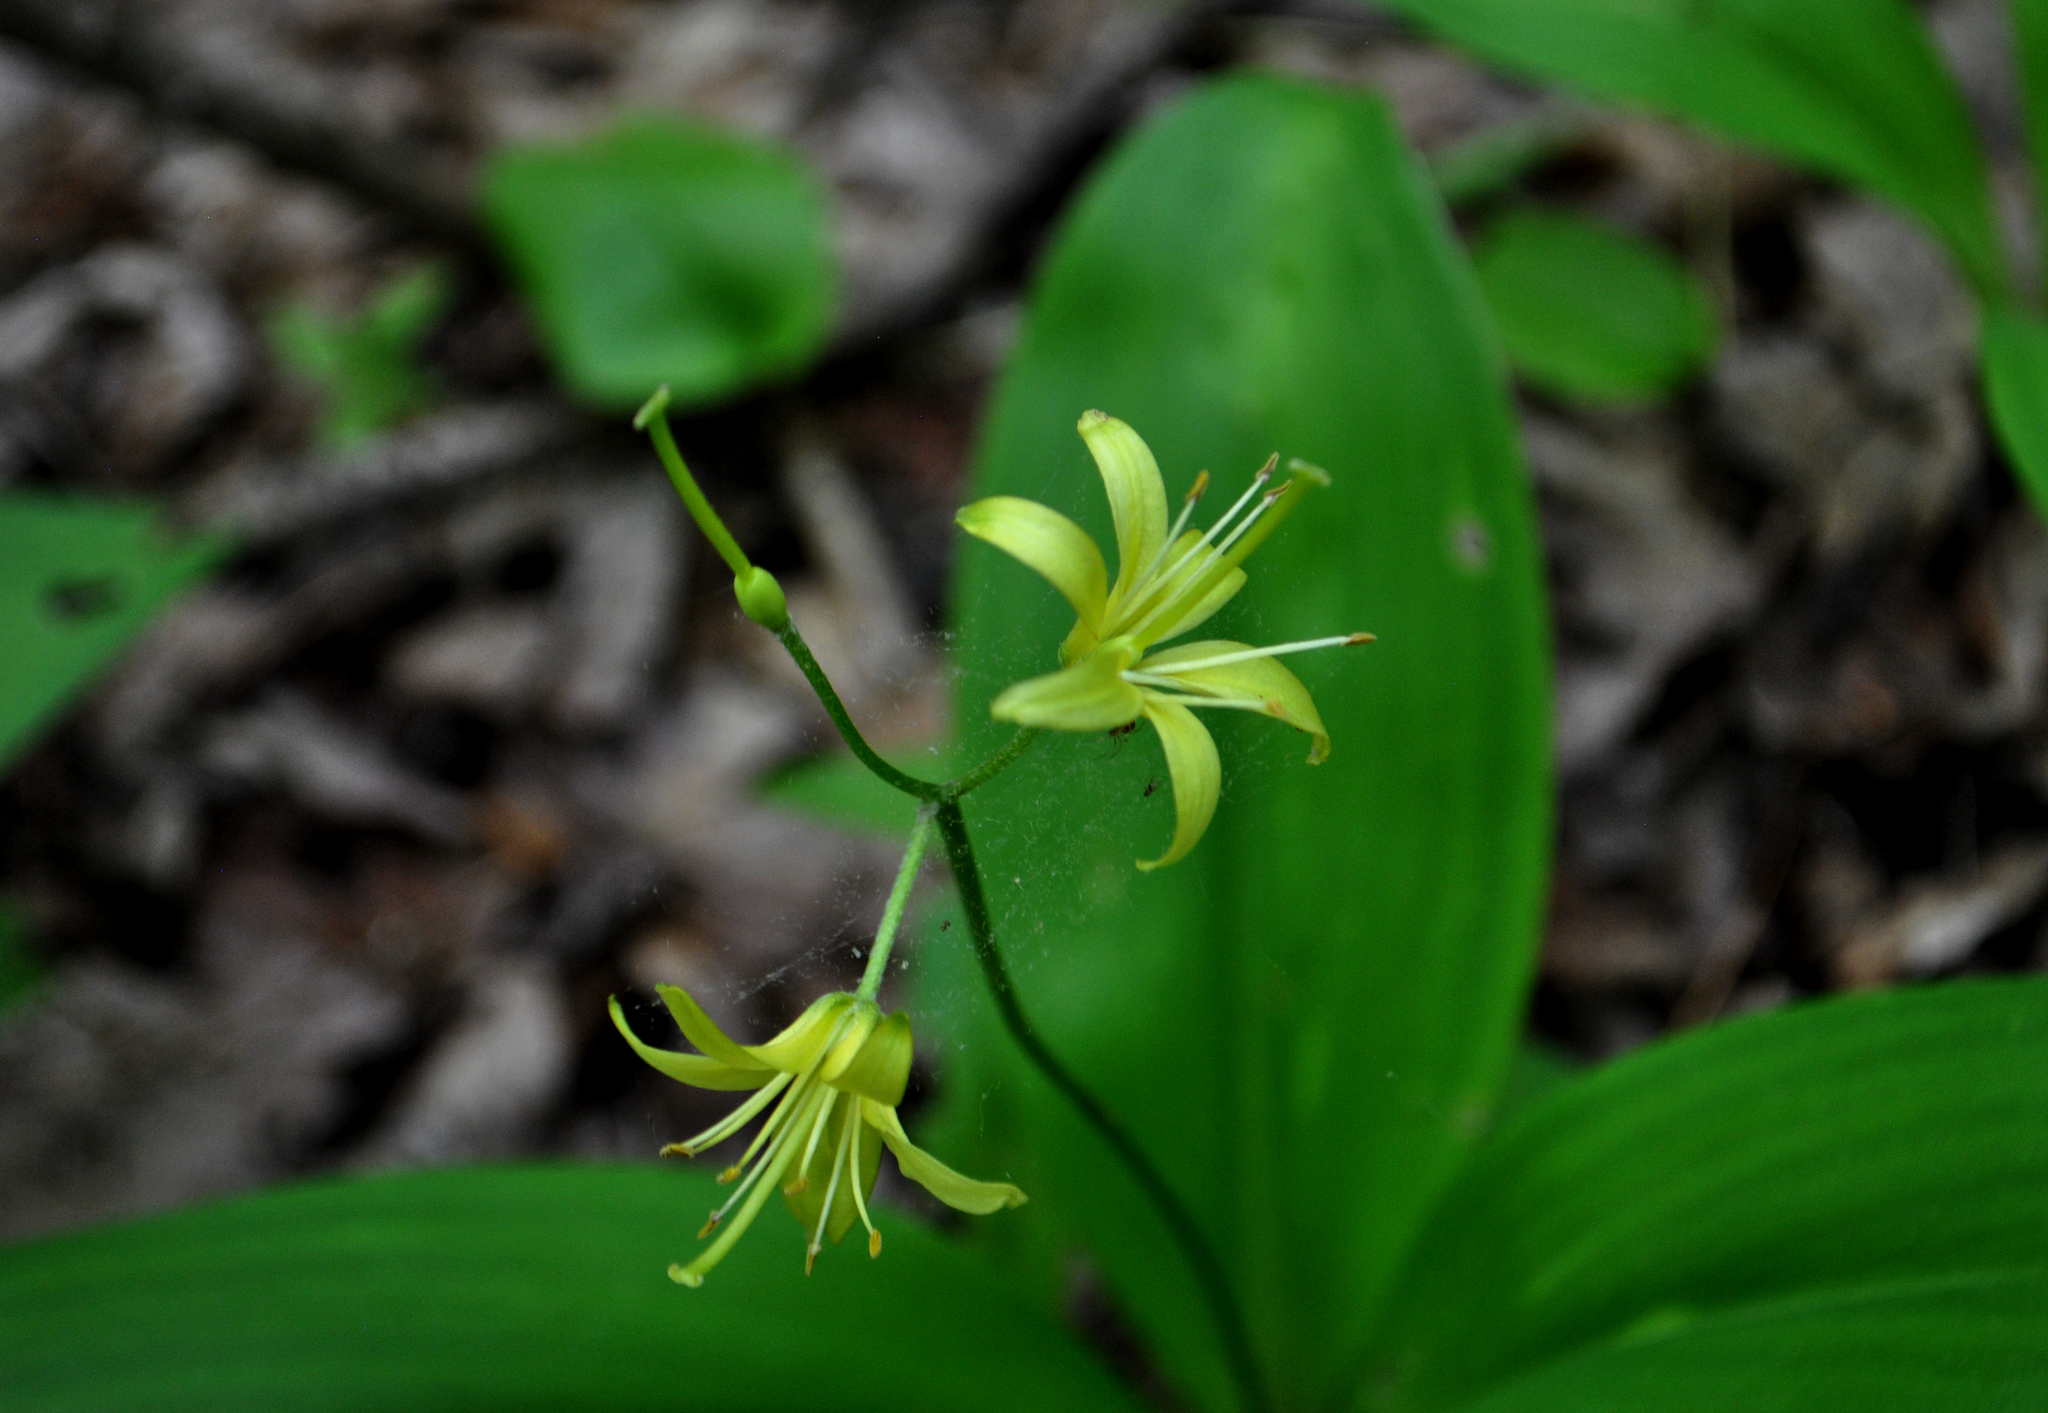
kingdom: Plantae
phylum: Tracheophyta
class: Liliopsida
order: Liliales
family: Liliaceae
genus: Clintonia
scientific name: Clintonia borealis
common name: Yellow clintonia
